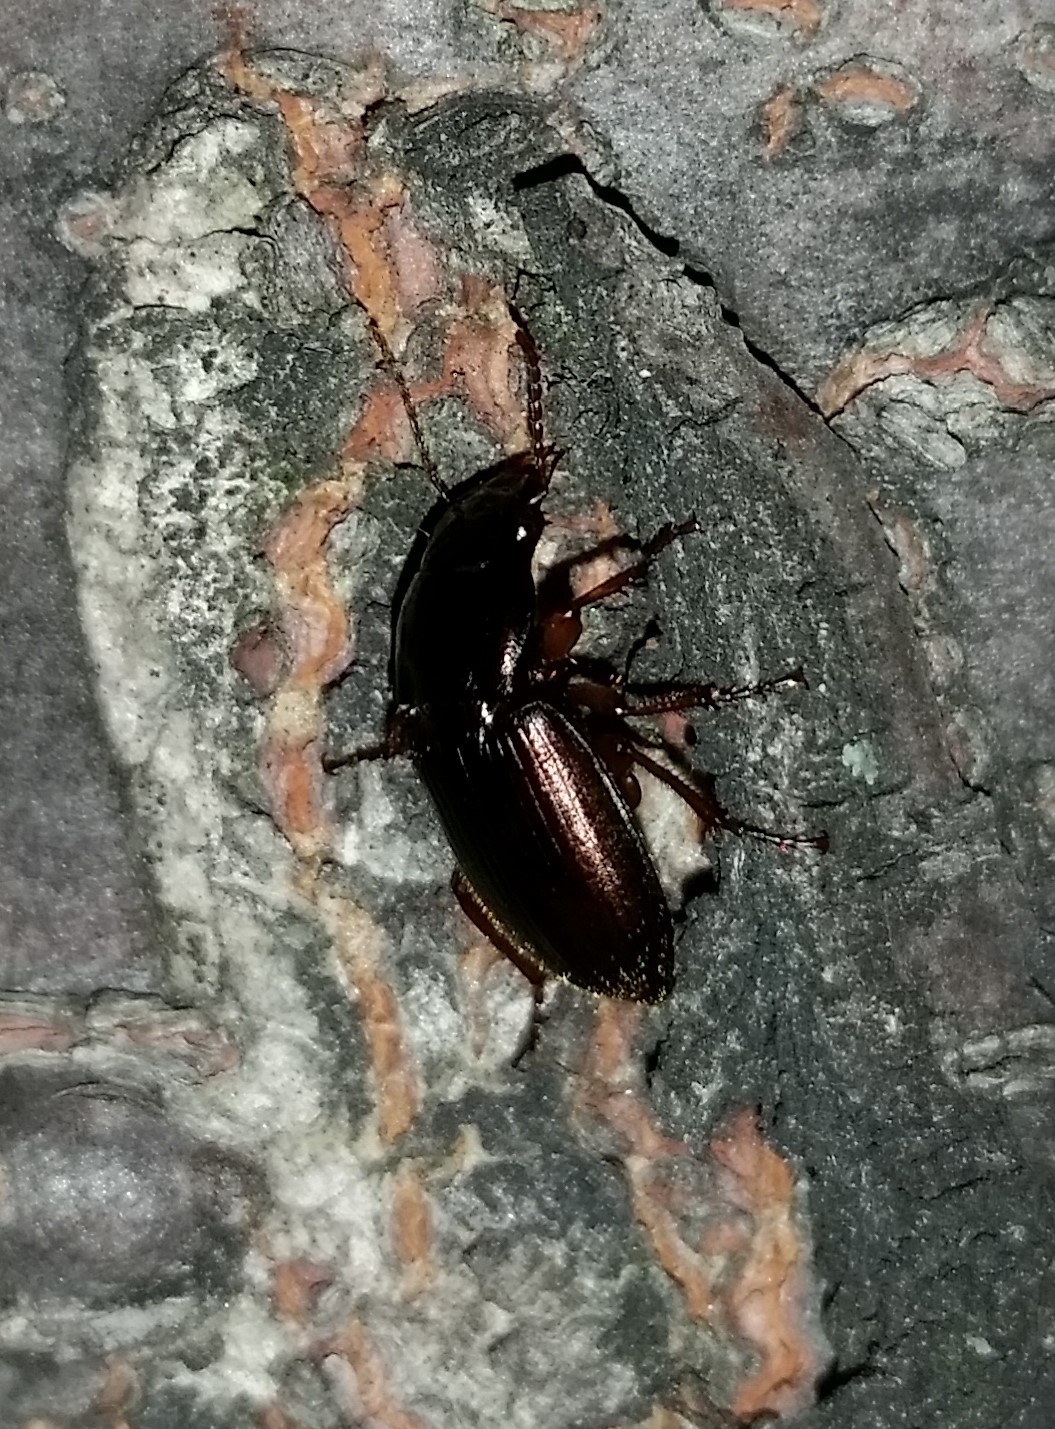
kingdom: Animalia
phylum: Arthropoda
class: Insecta
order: Coleoptera
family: Carabidae
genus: Harpalus
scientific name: Harpalus affinis
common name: Polychrome harp ground beetle
